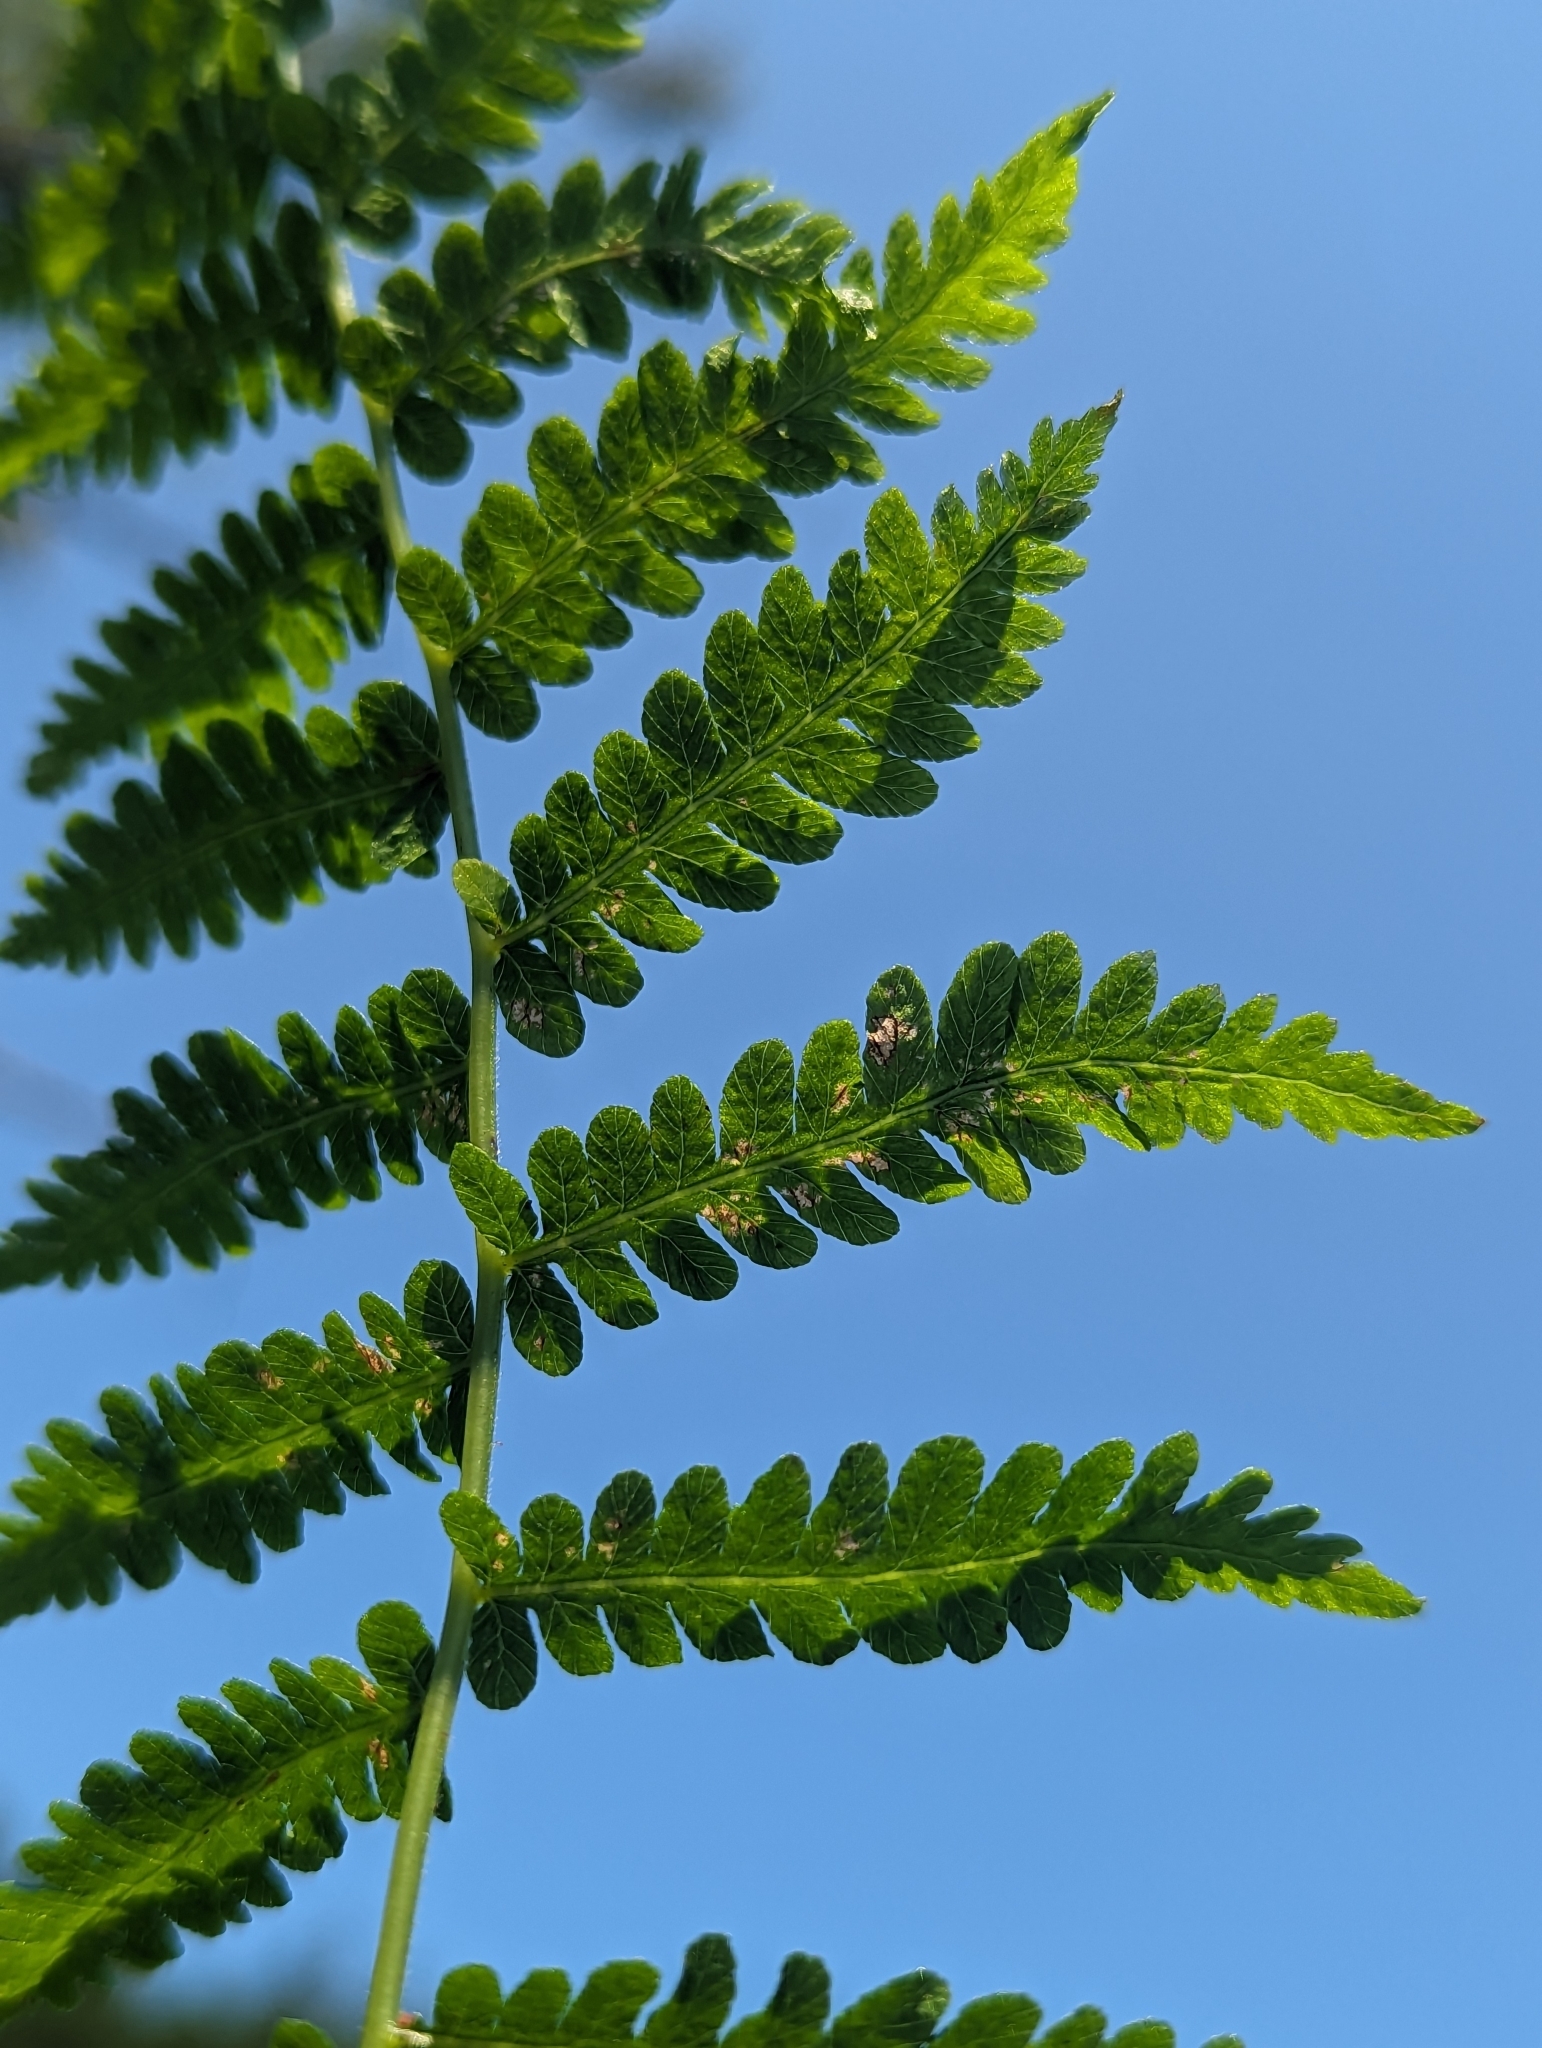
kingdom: Plantae
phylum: Tracheophyta
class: Polypodiopsida
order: Polypodiales
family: Thelypteridaceae
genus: Coryphopteris
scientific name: Coryphopteris simulata
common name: Bog fern
